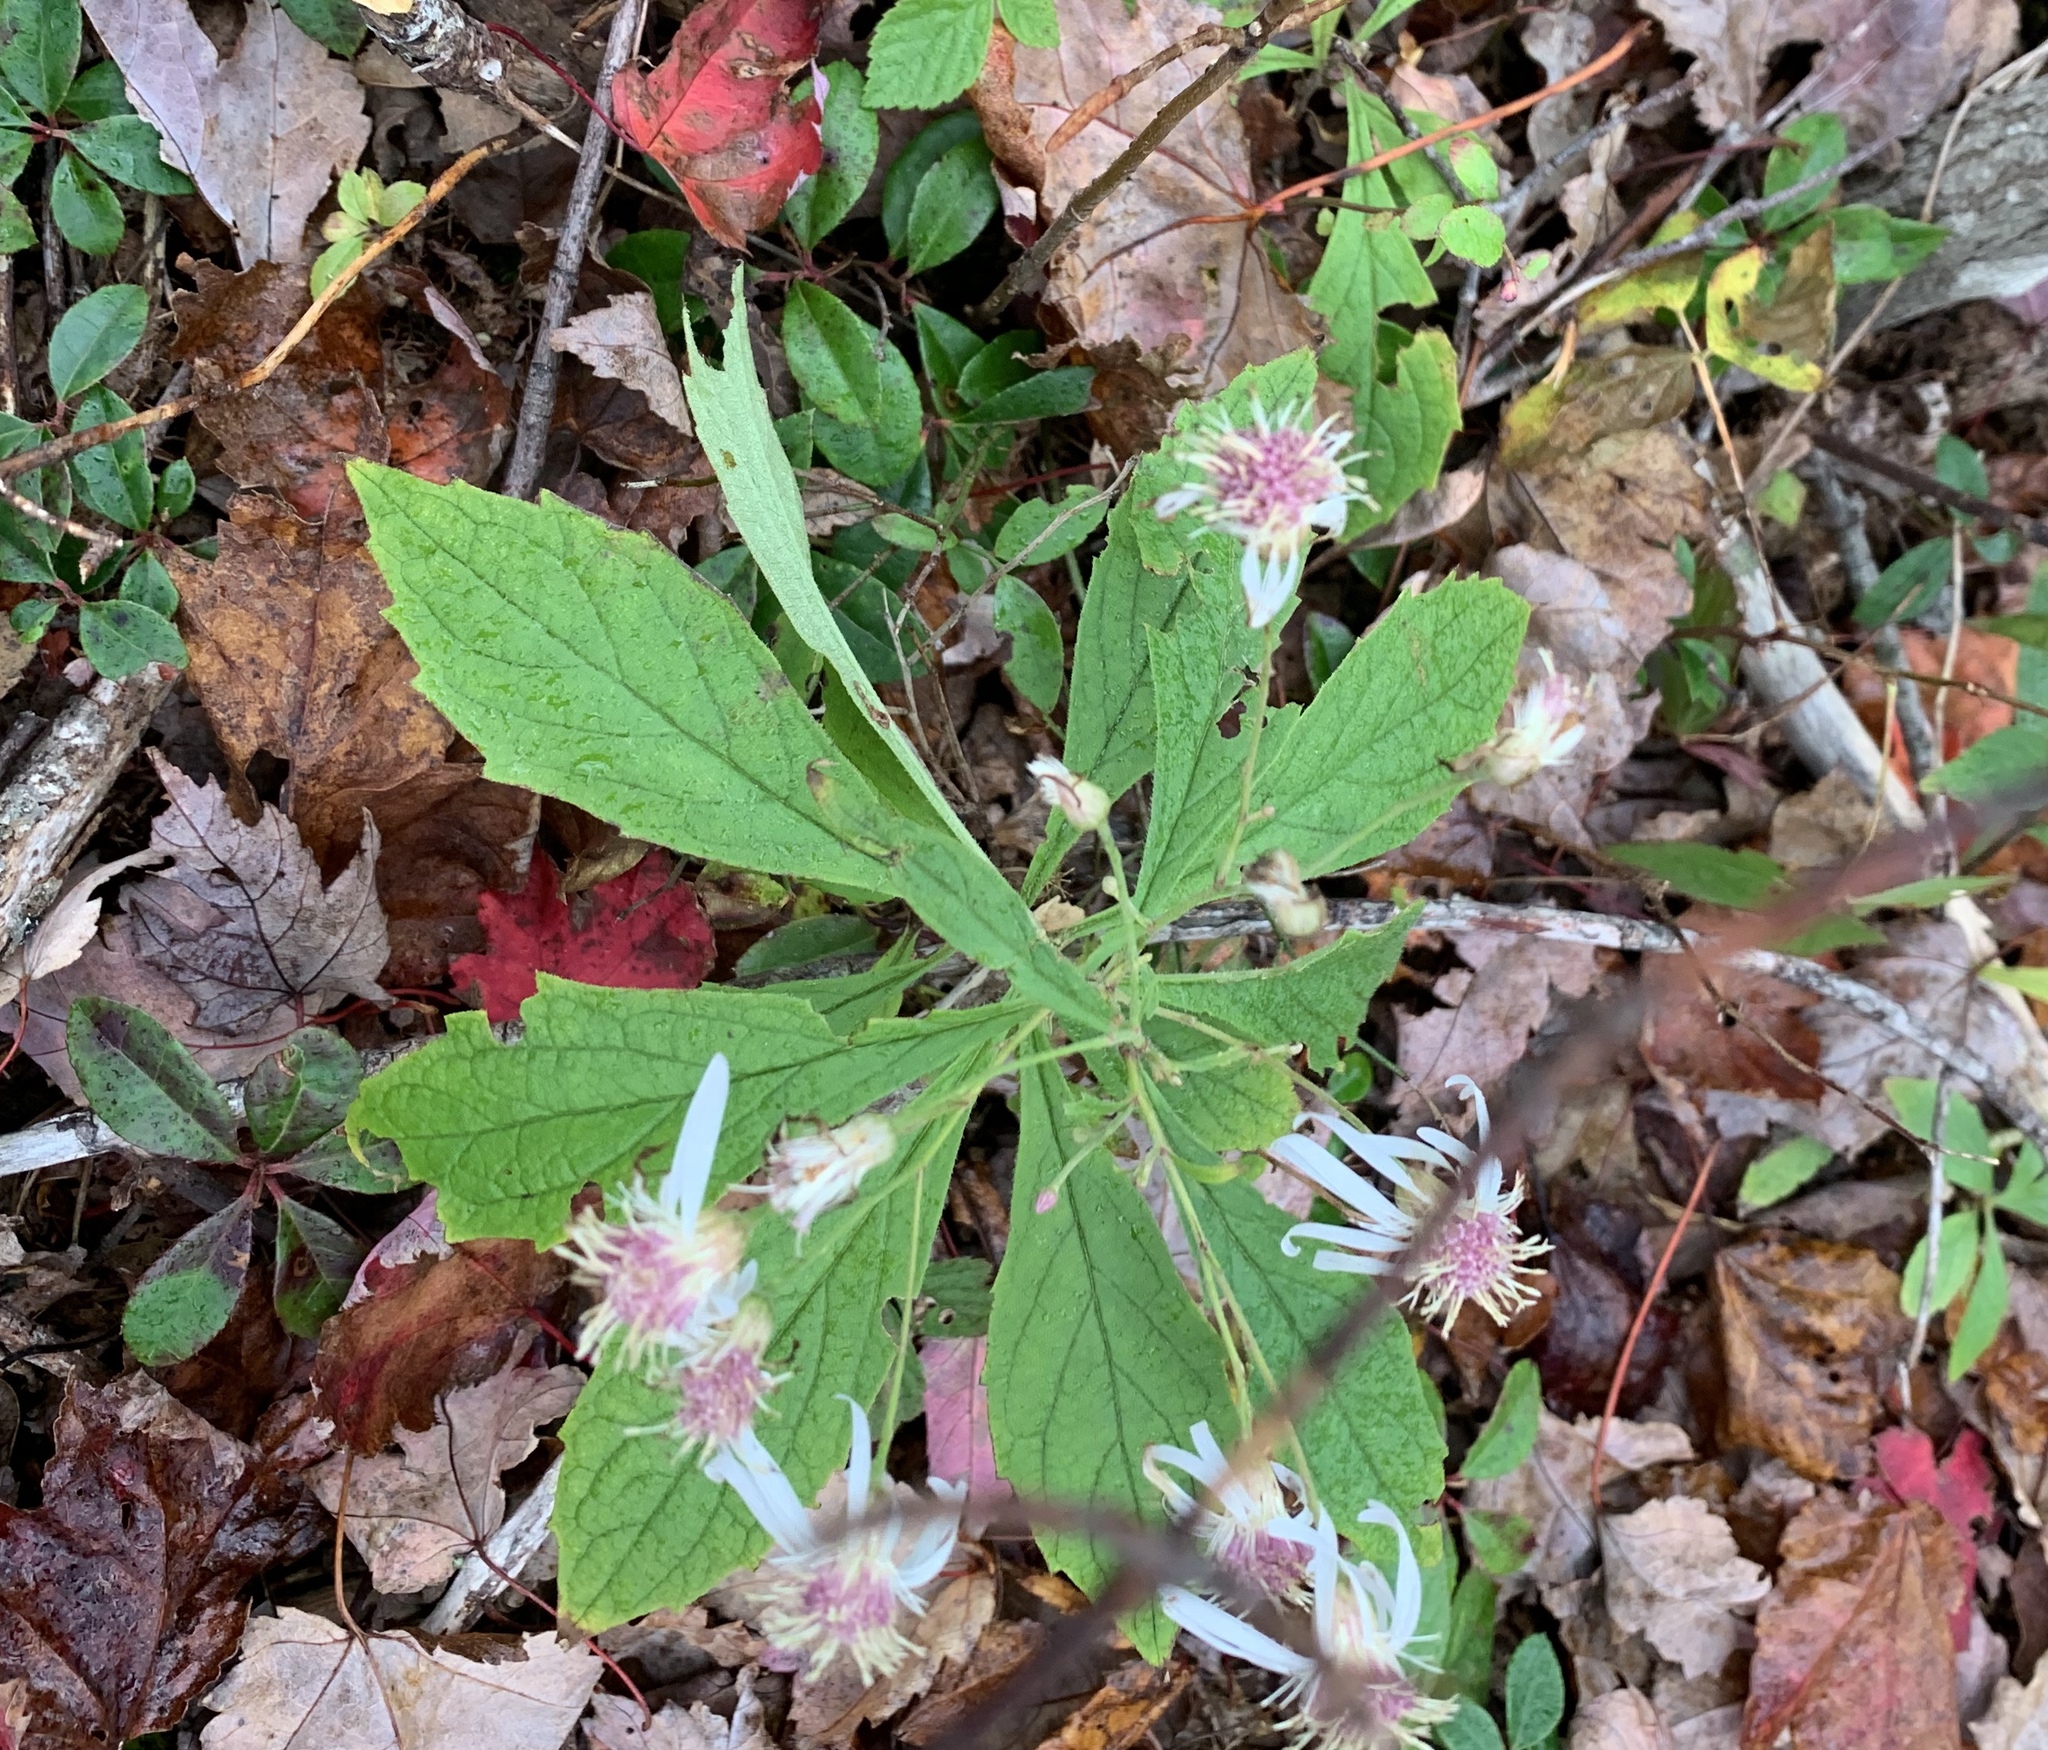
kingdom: Plantae
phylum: Tracheophyta
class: Magnoliopsida
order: Asterales
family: Asteraceae
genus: Oclemena
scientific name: Oclemena acuminata
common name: Mountain aster
